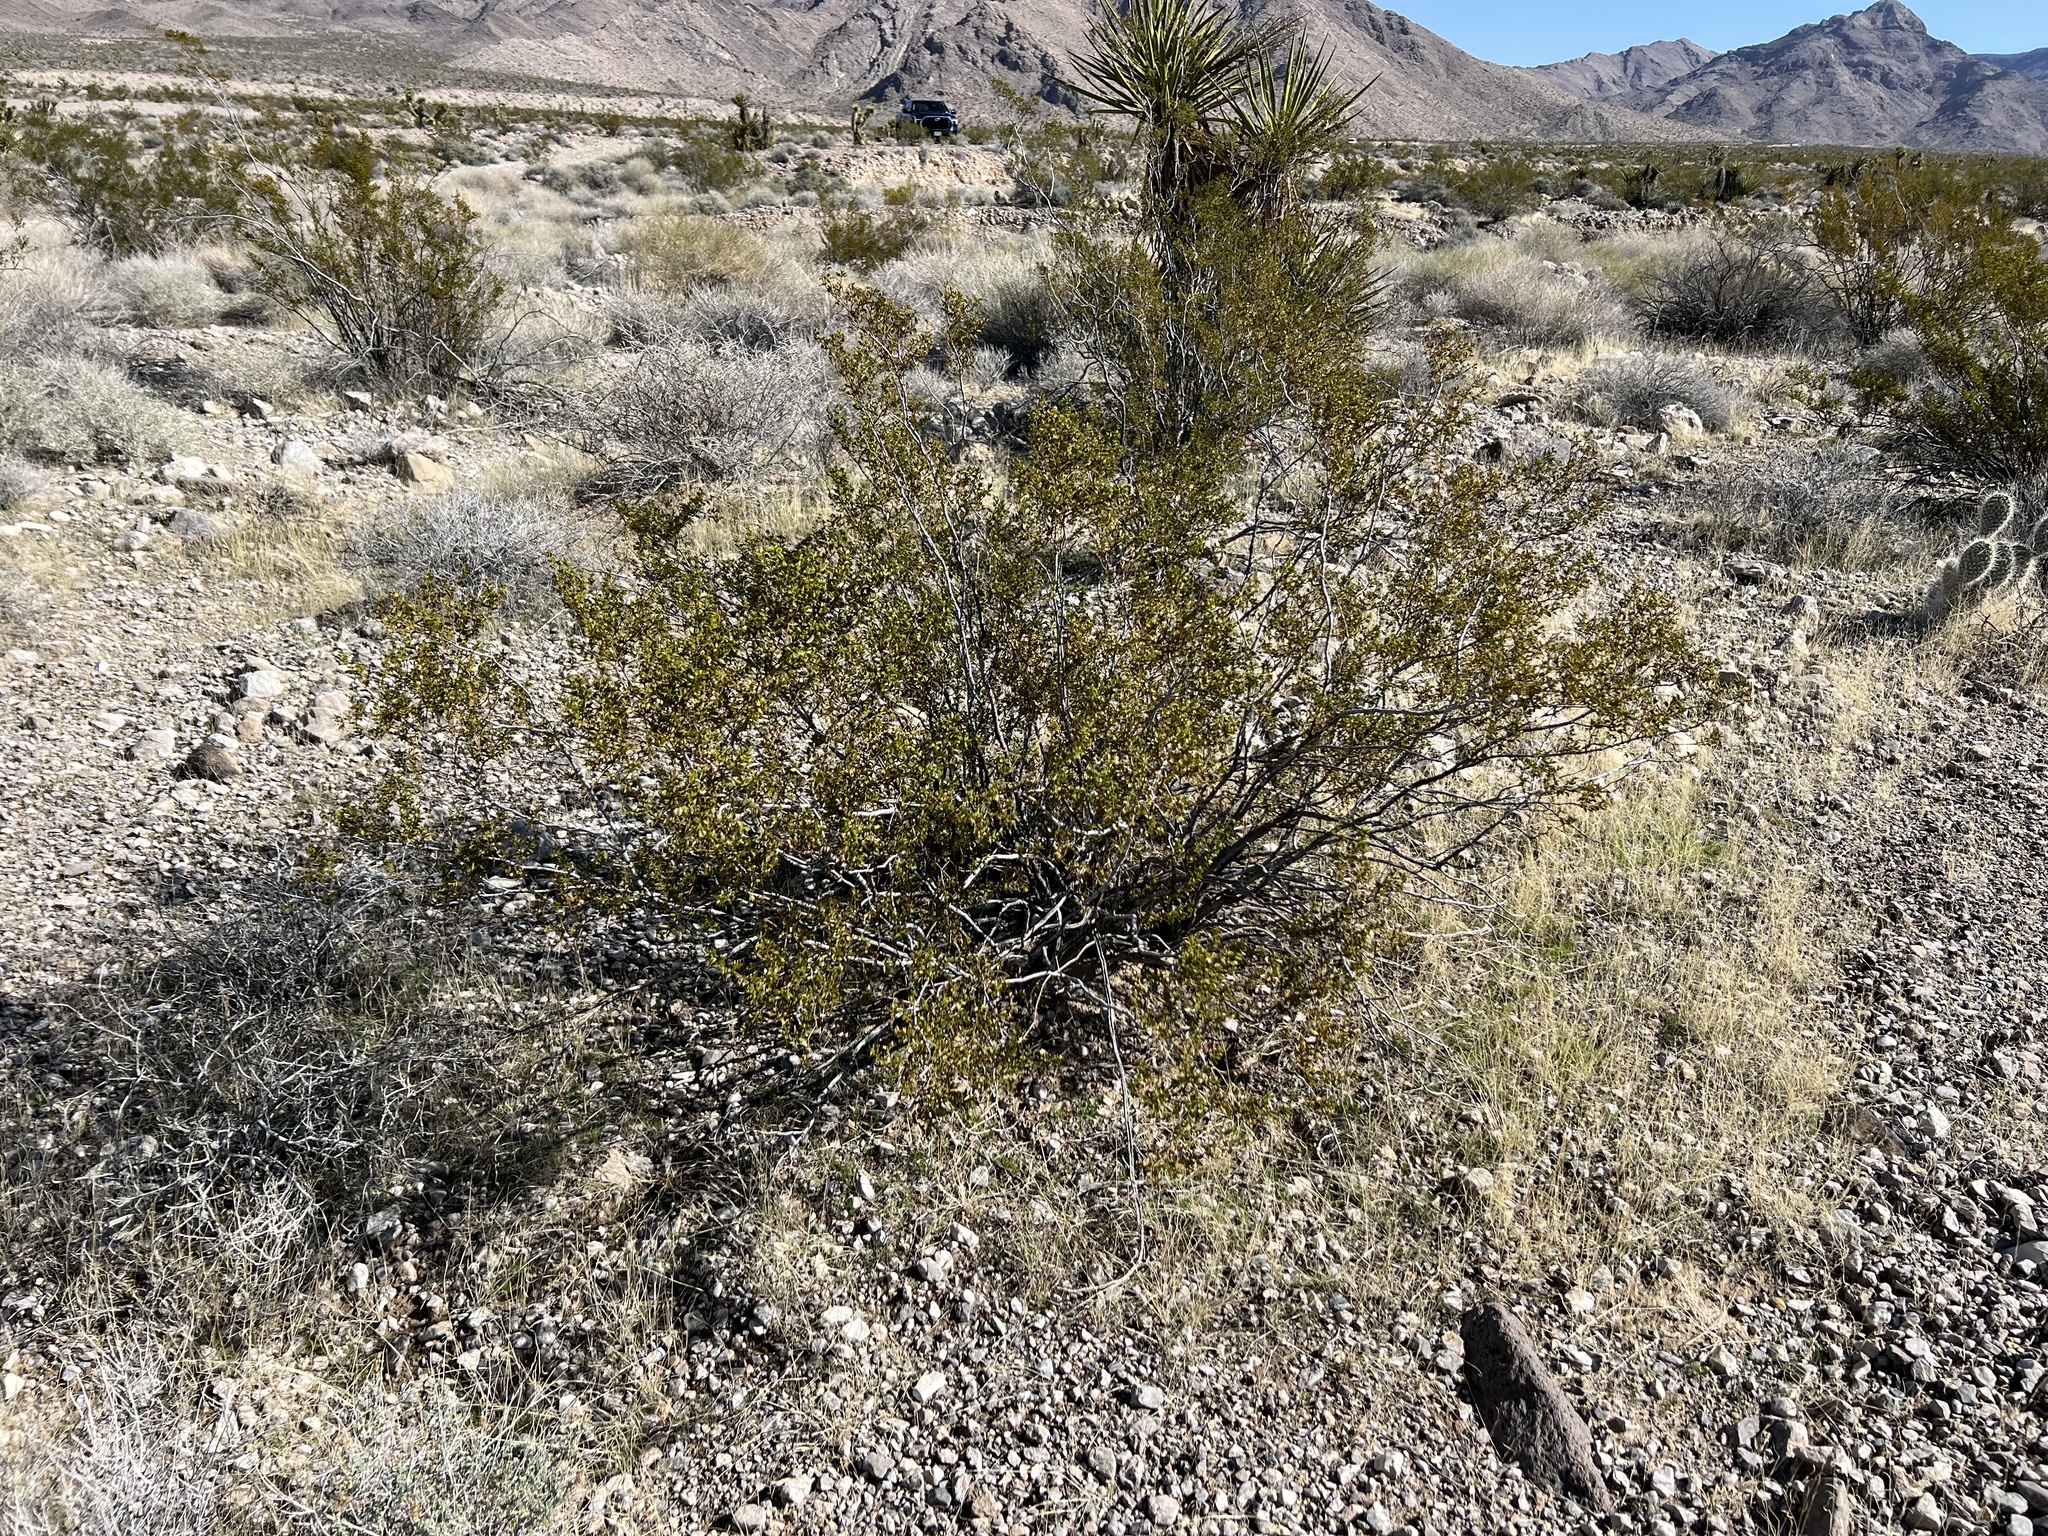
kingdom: Plantae
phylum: Tracheophyta
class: Magnoliopsida
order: Zygophyllales
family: Zygophyllaceae
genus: Larrea
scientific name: Larrea tridentata
